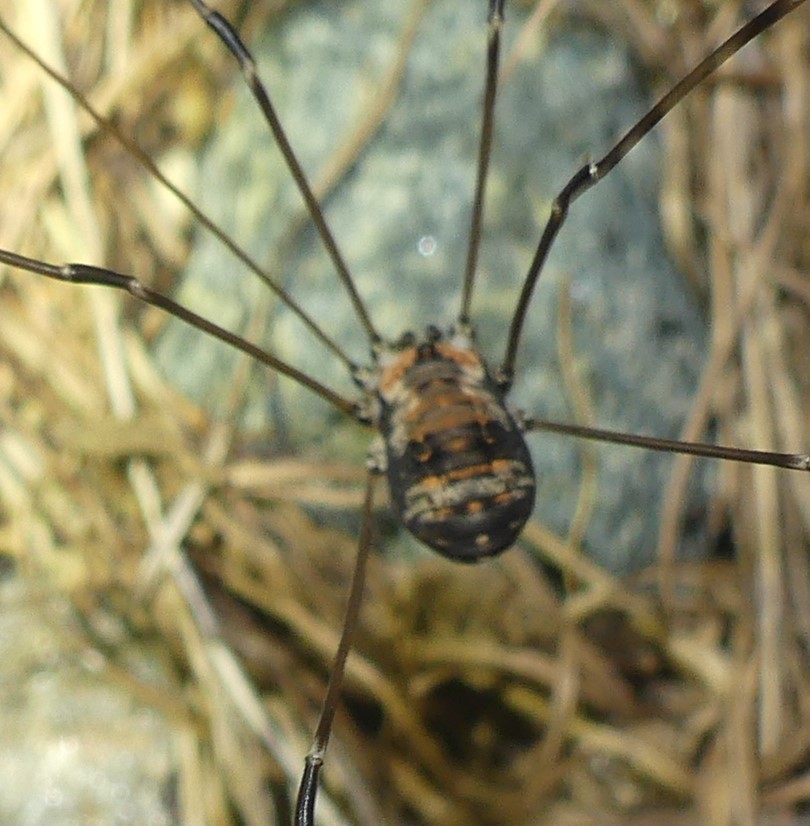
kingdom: Animalia
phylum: Arthropoda
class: Arachnida
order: Opiliones
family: Sclerosomatidae
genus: Leiobunum
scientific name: Leiobunum limbatum
